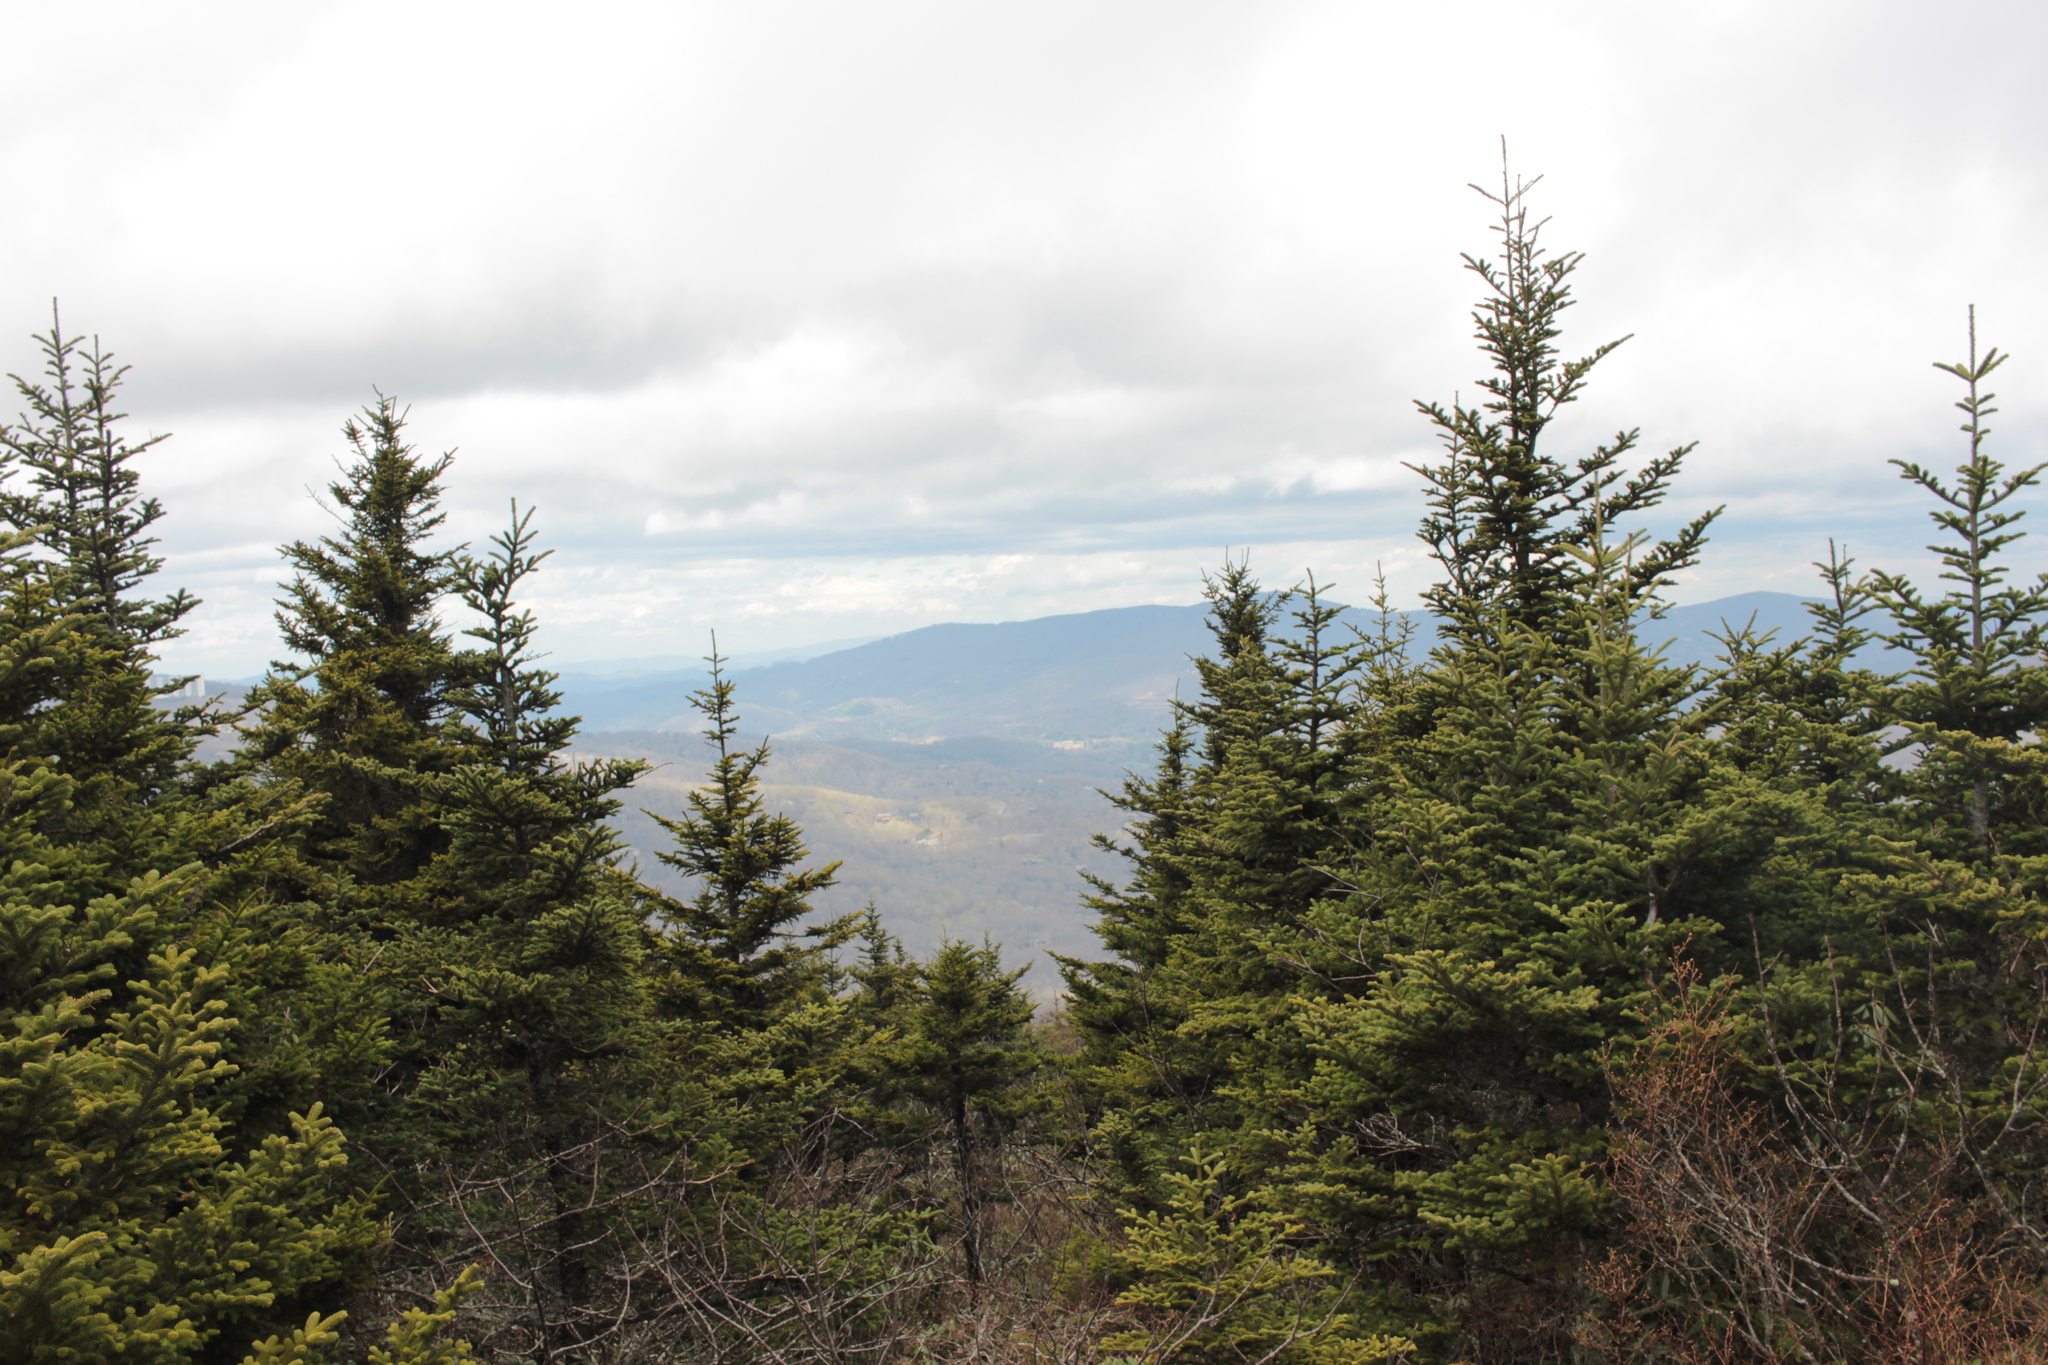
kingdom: Plantae
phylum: Tracheophyta
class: Pinopsida
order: Pinales
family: Pinaceae
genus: Picea
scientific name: Picea rubens
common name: Red spruce
